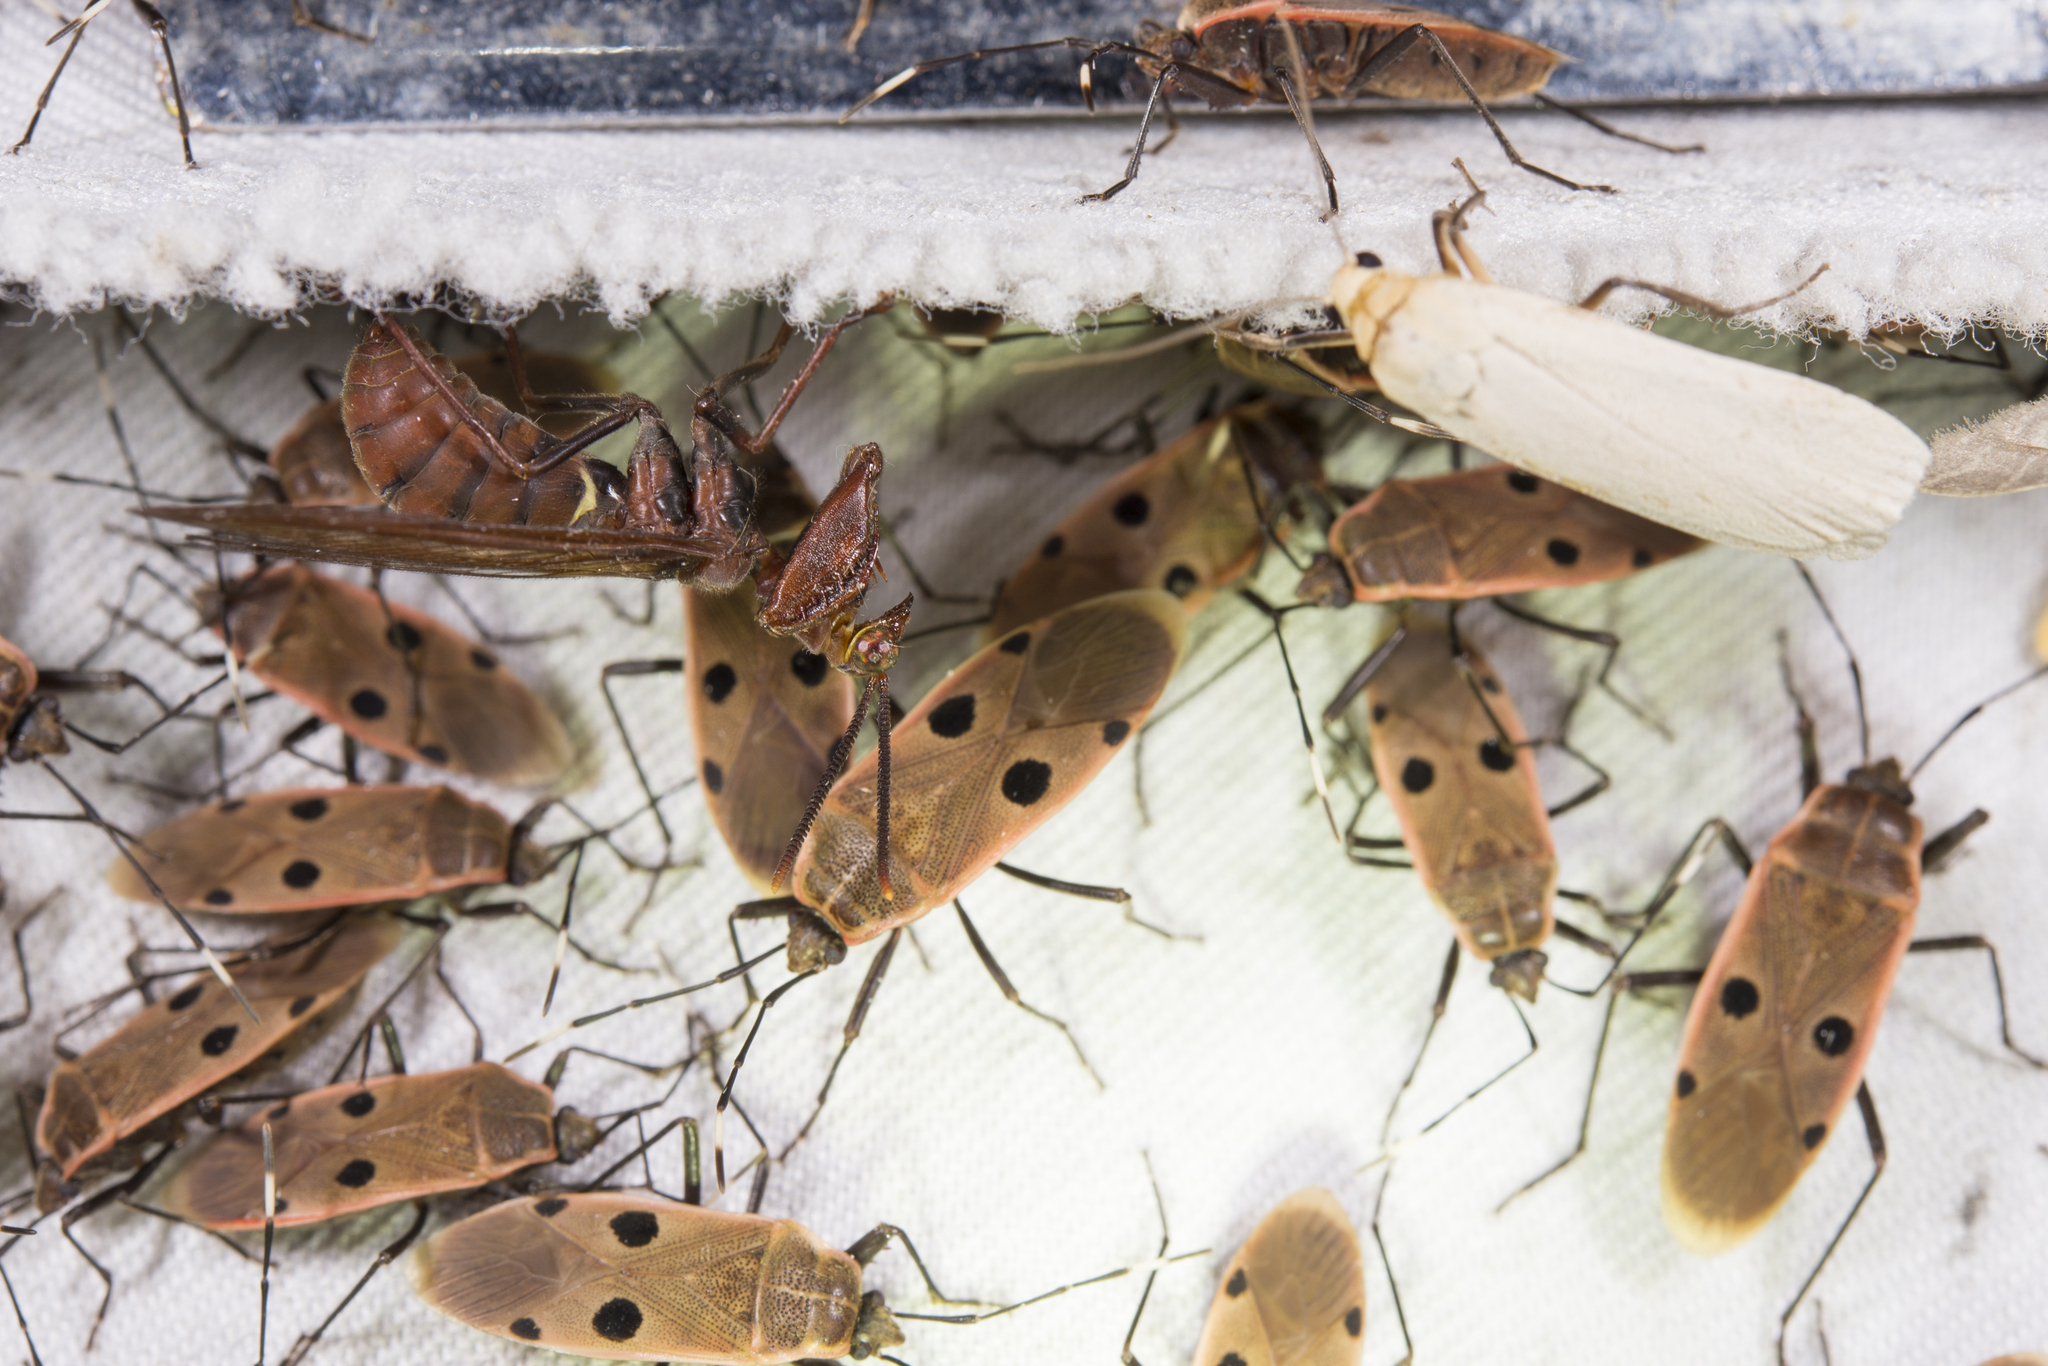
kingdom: Animalia
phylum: Arthropoda
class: Insecta
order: Neuroptera
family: Mantispidae
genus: Euclimacia
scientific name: Euclimacia badia
